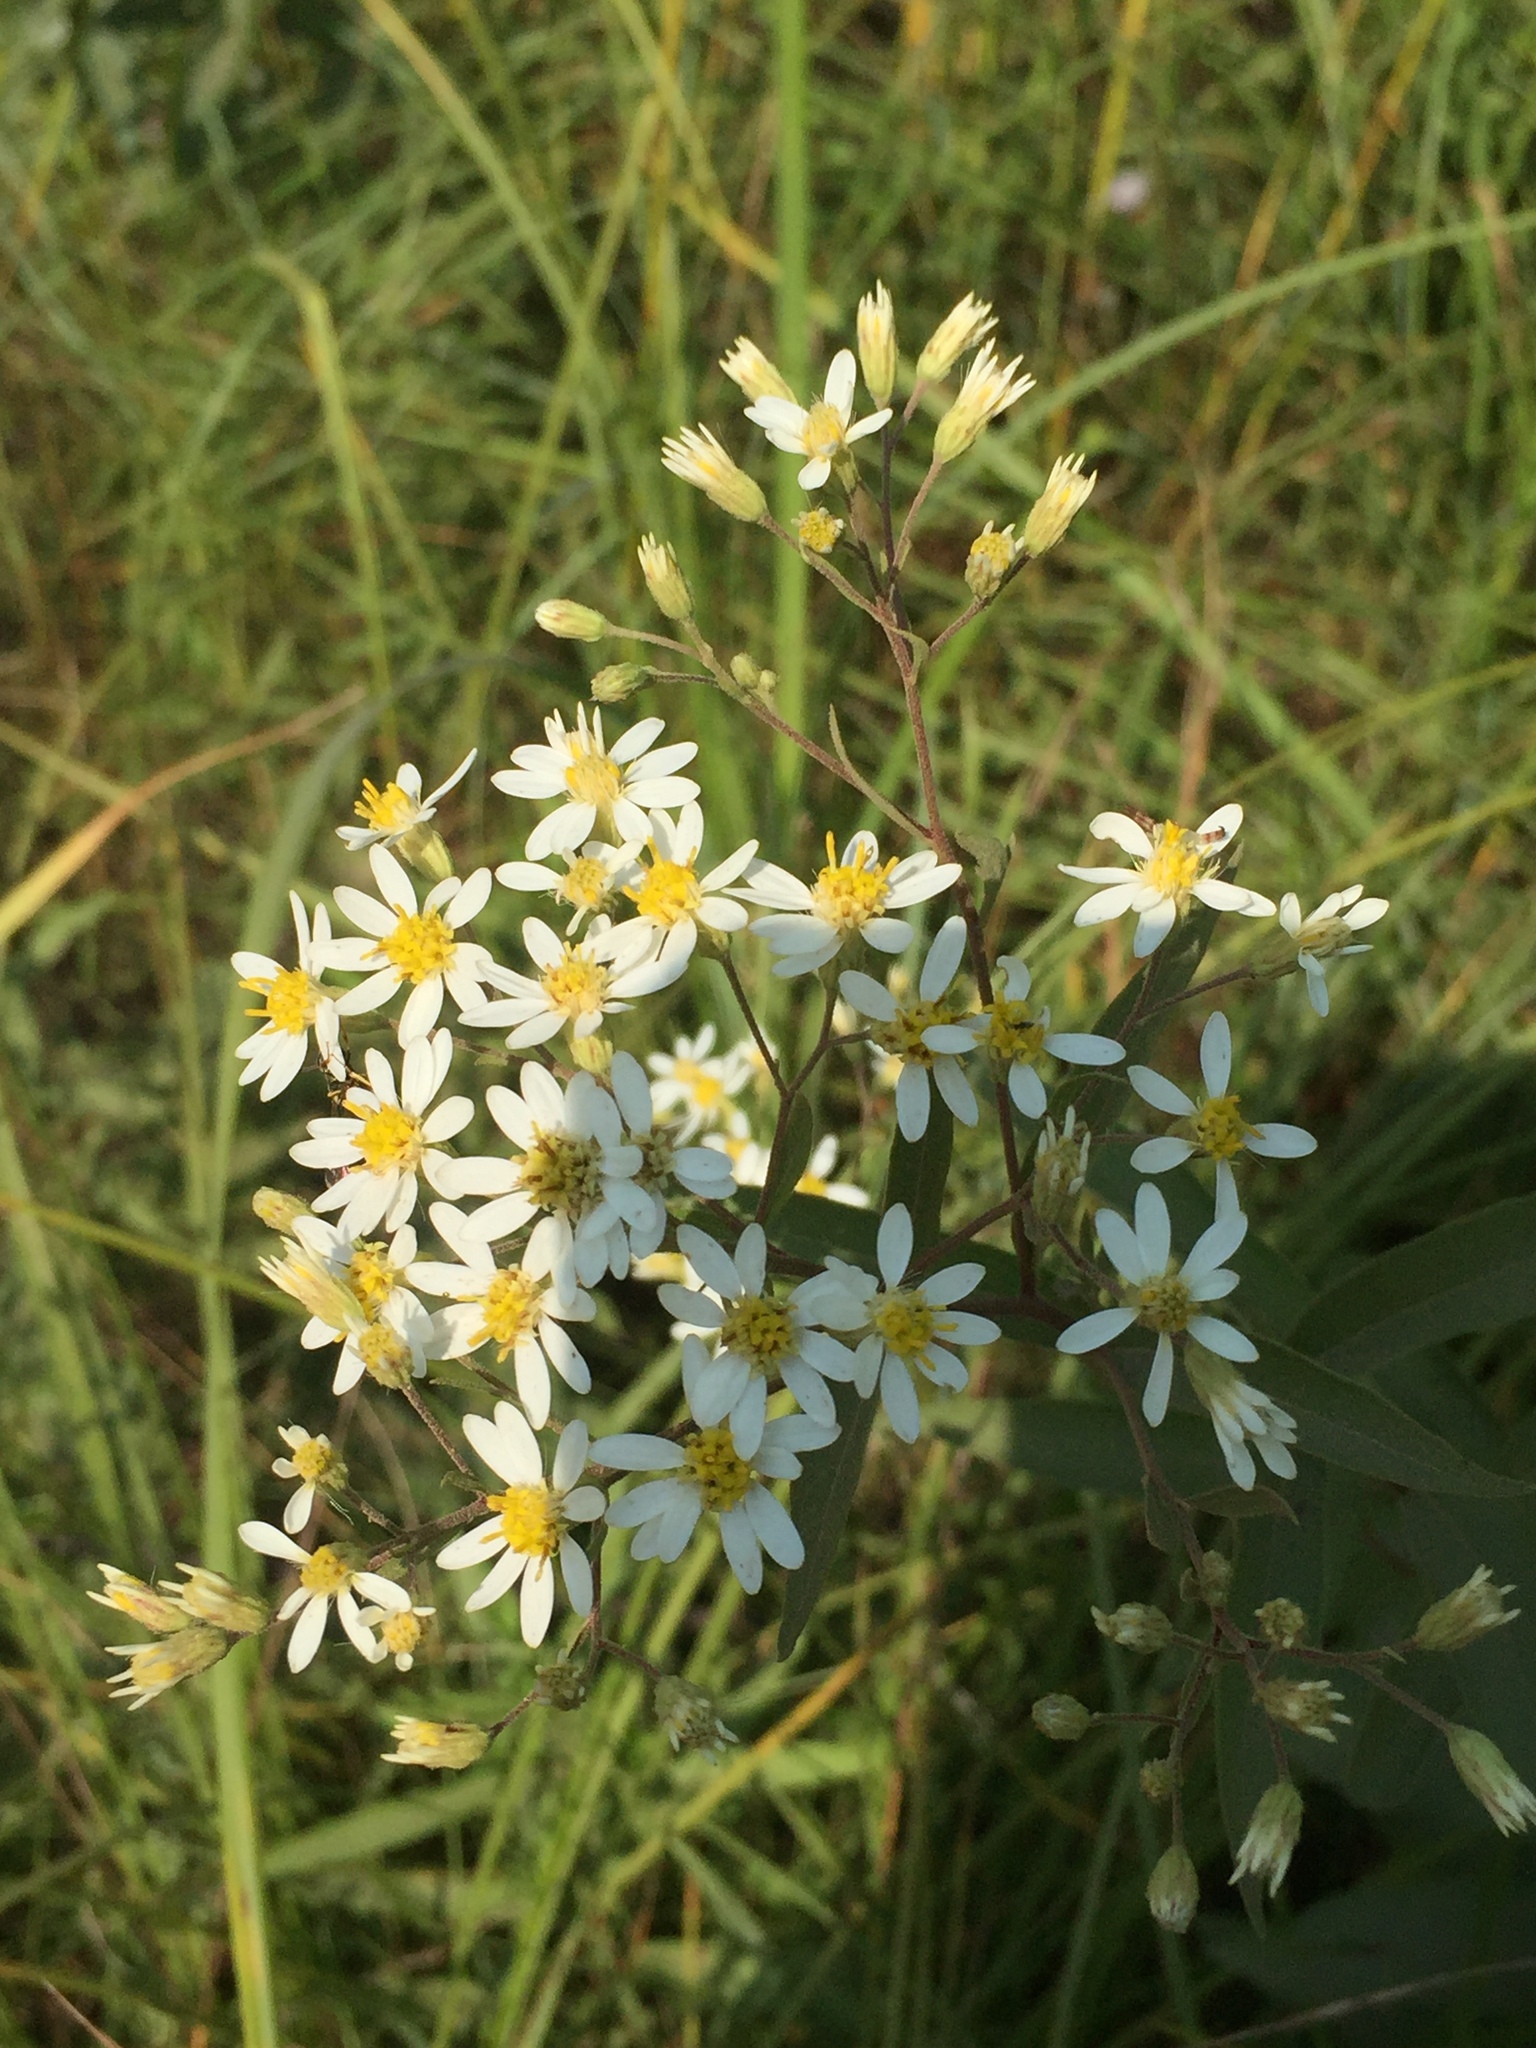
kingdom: Plantae
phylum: Tracheophyta
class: Magnoliopsida
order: Asterales
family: Asteraceae
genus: Doellingeria
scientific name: Doellingeria umbellata
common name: Flat-top white aster
